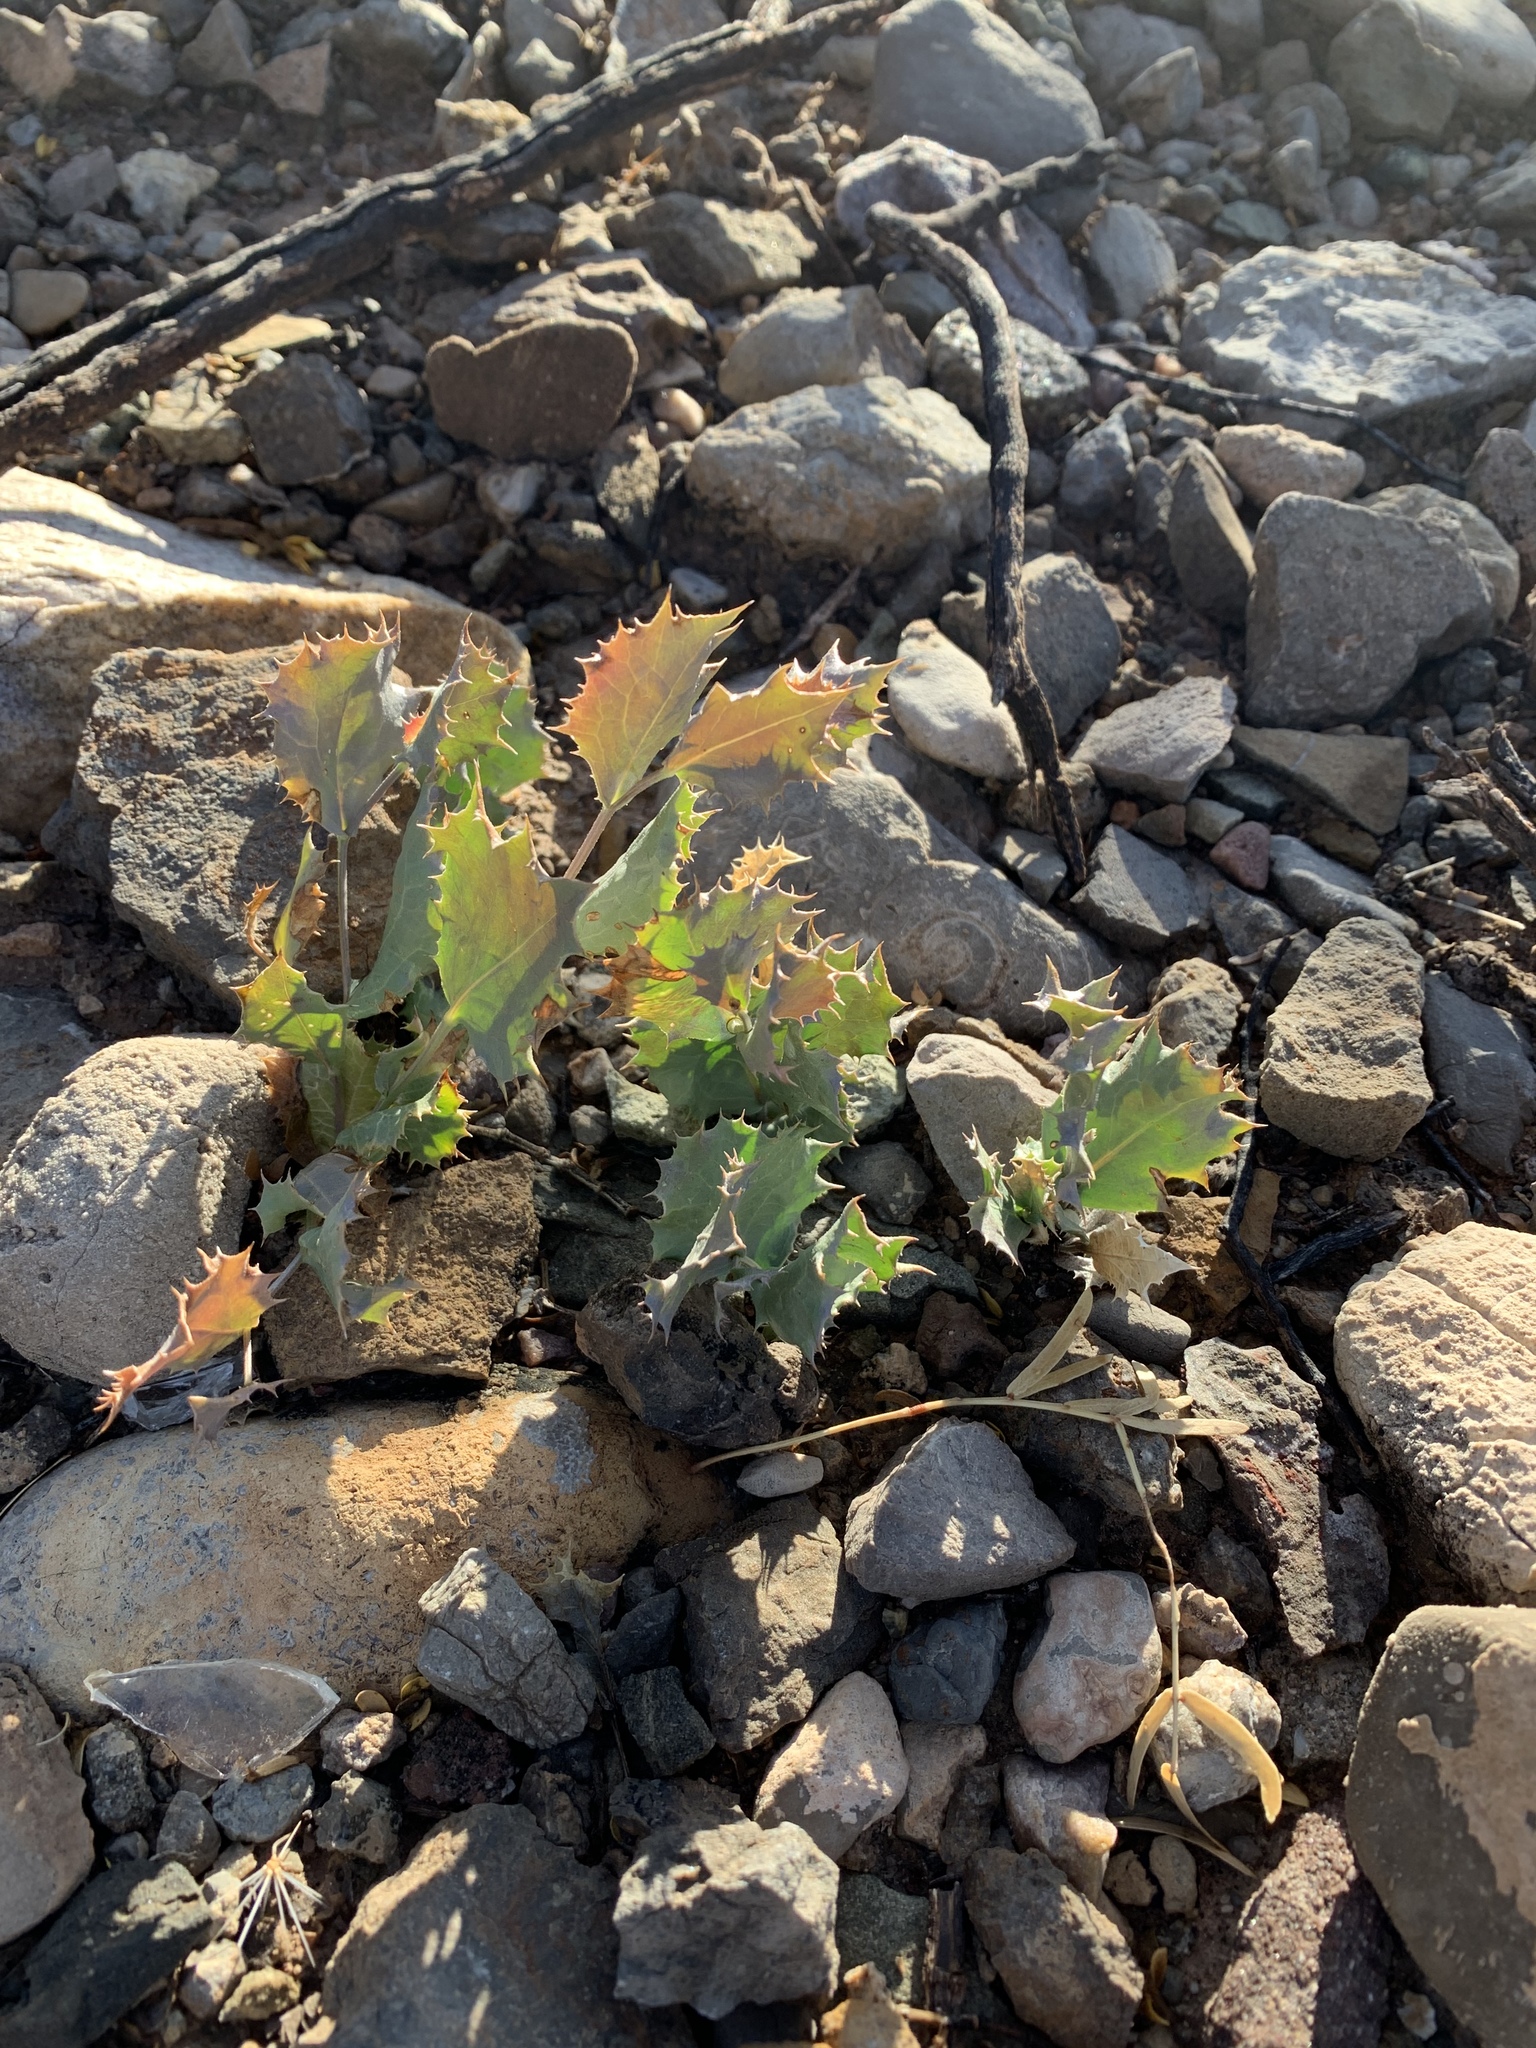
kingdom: Plantae
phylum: Tracheophyta
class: Magnoliopsida
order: Asterales
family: Asteraceae
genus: Acourtia
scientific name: Acourtia nana
